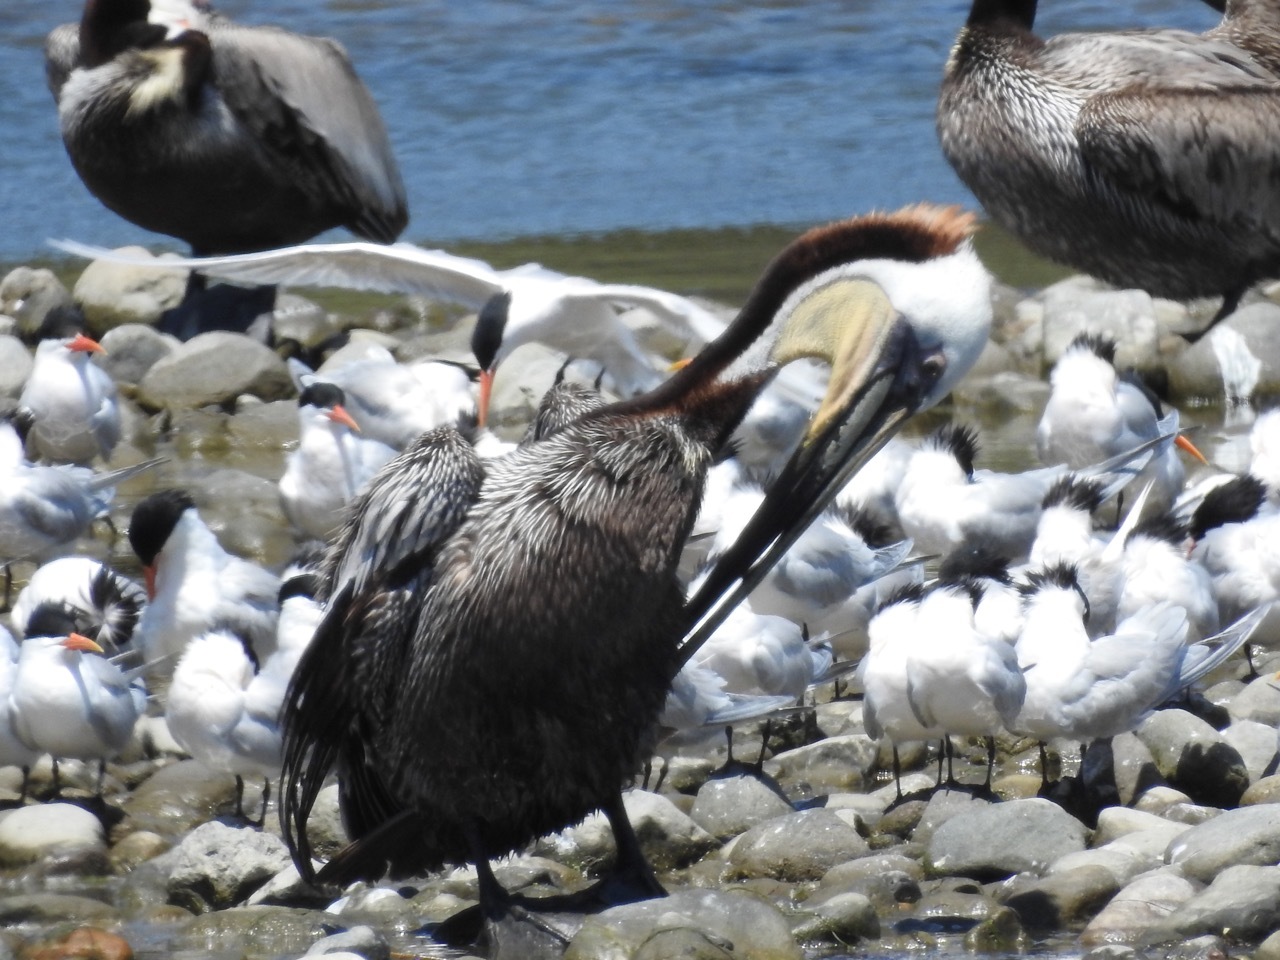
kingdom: Animalia
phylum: Chordata
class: Aves
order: Pelecaniformes
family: Pelecanidae
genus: Pelecanus
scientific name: Pelecanus occidentalis
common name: Brown pelican
